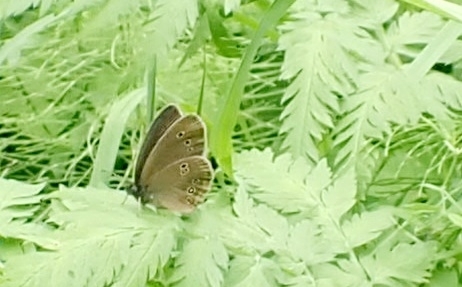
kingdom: Animalia
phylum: Arthropoda
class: Insecta
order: Lepidoptera
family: Nymphalidae
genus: Aphantopus
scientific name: Aphantopus hyperantus
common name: Ringlet
